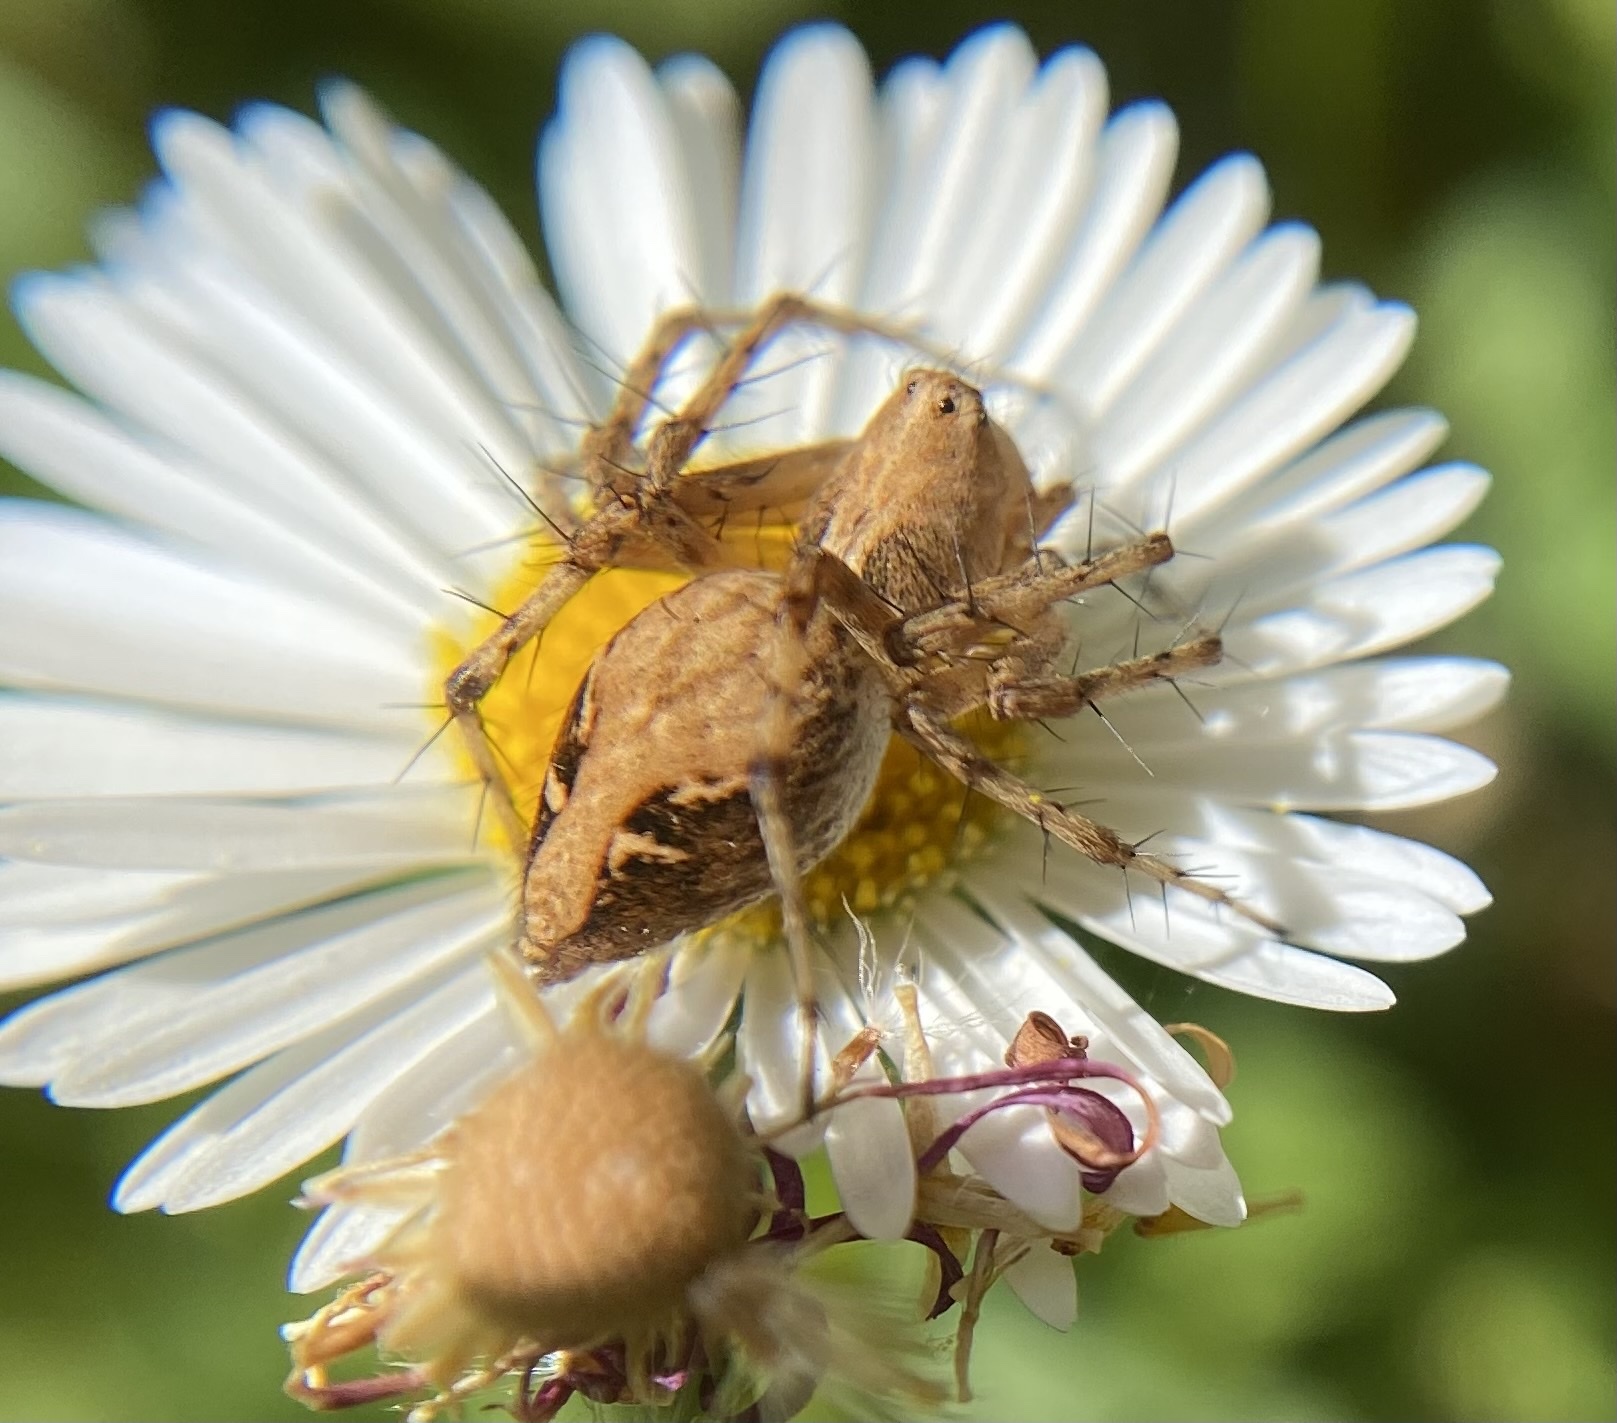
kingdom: Animalia
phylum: Arthropoda
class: Arachnida
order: Araneae
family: Oxyopidae
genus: Oxyopes
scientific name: Oxyopes scalaris
